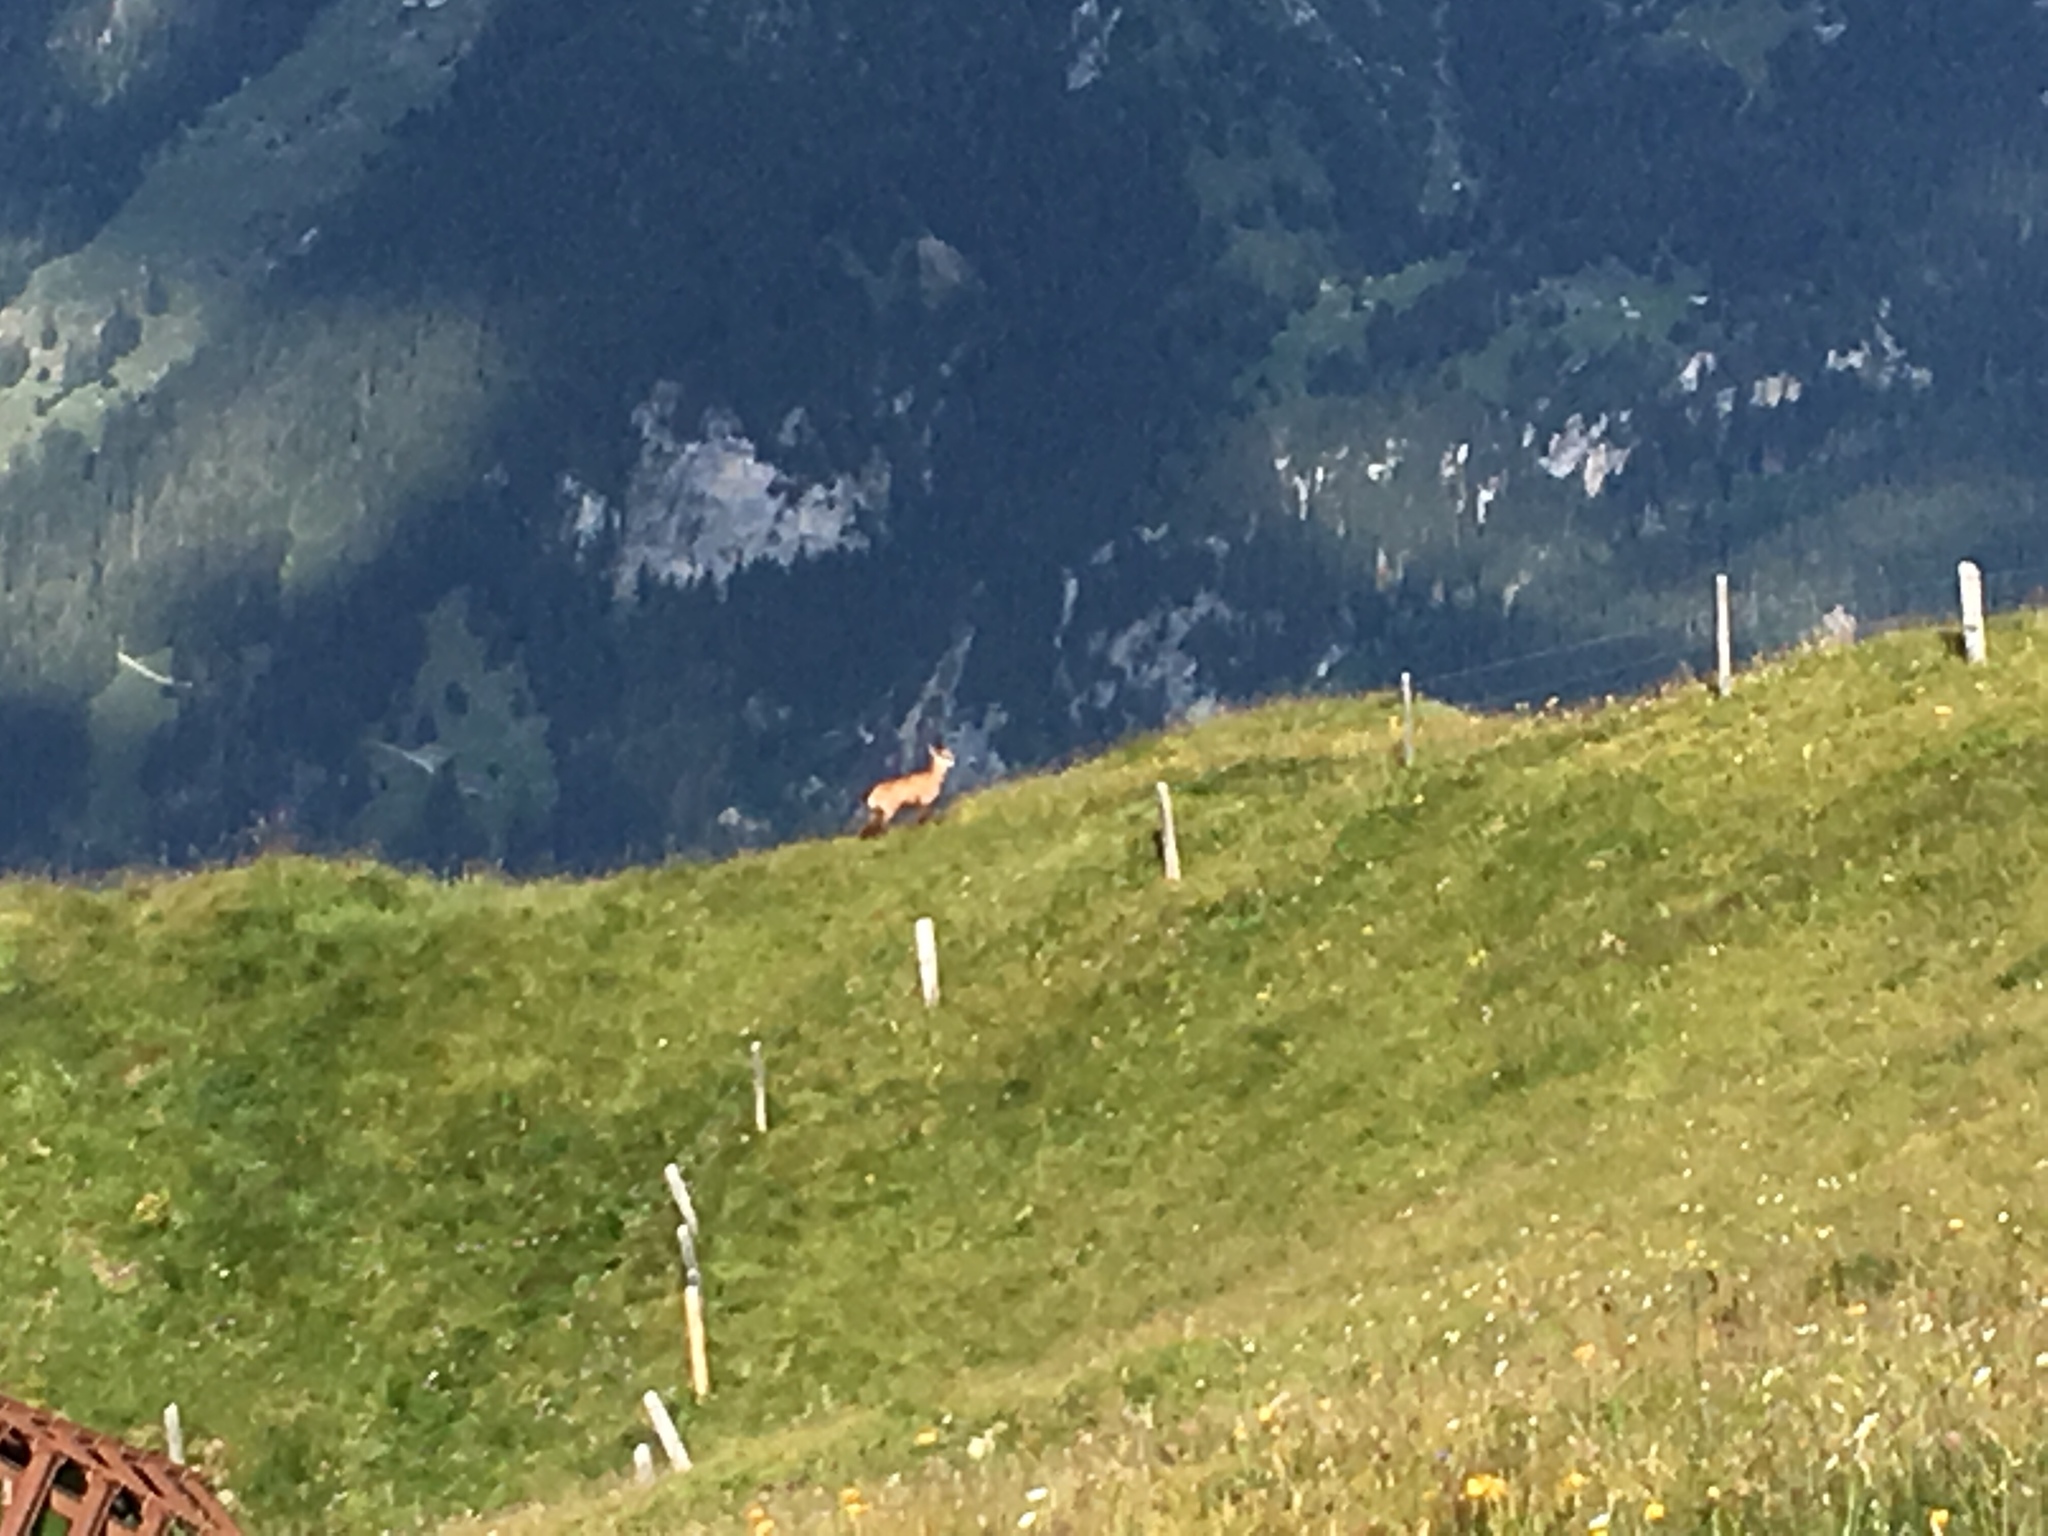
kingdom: Animalia
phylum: Chordata
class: Mammalia
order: Artiodactyla
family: Bovidae
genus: Rupicapra
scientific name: Rupicapra rupicapra
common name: Chamois
